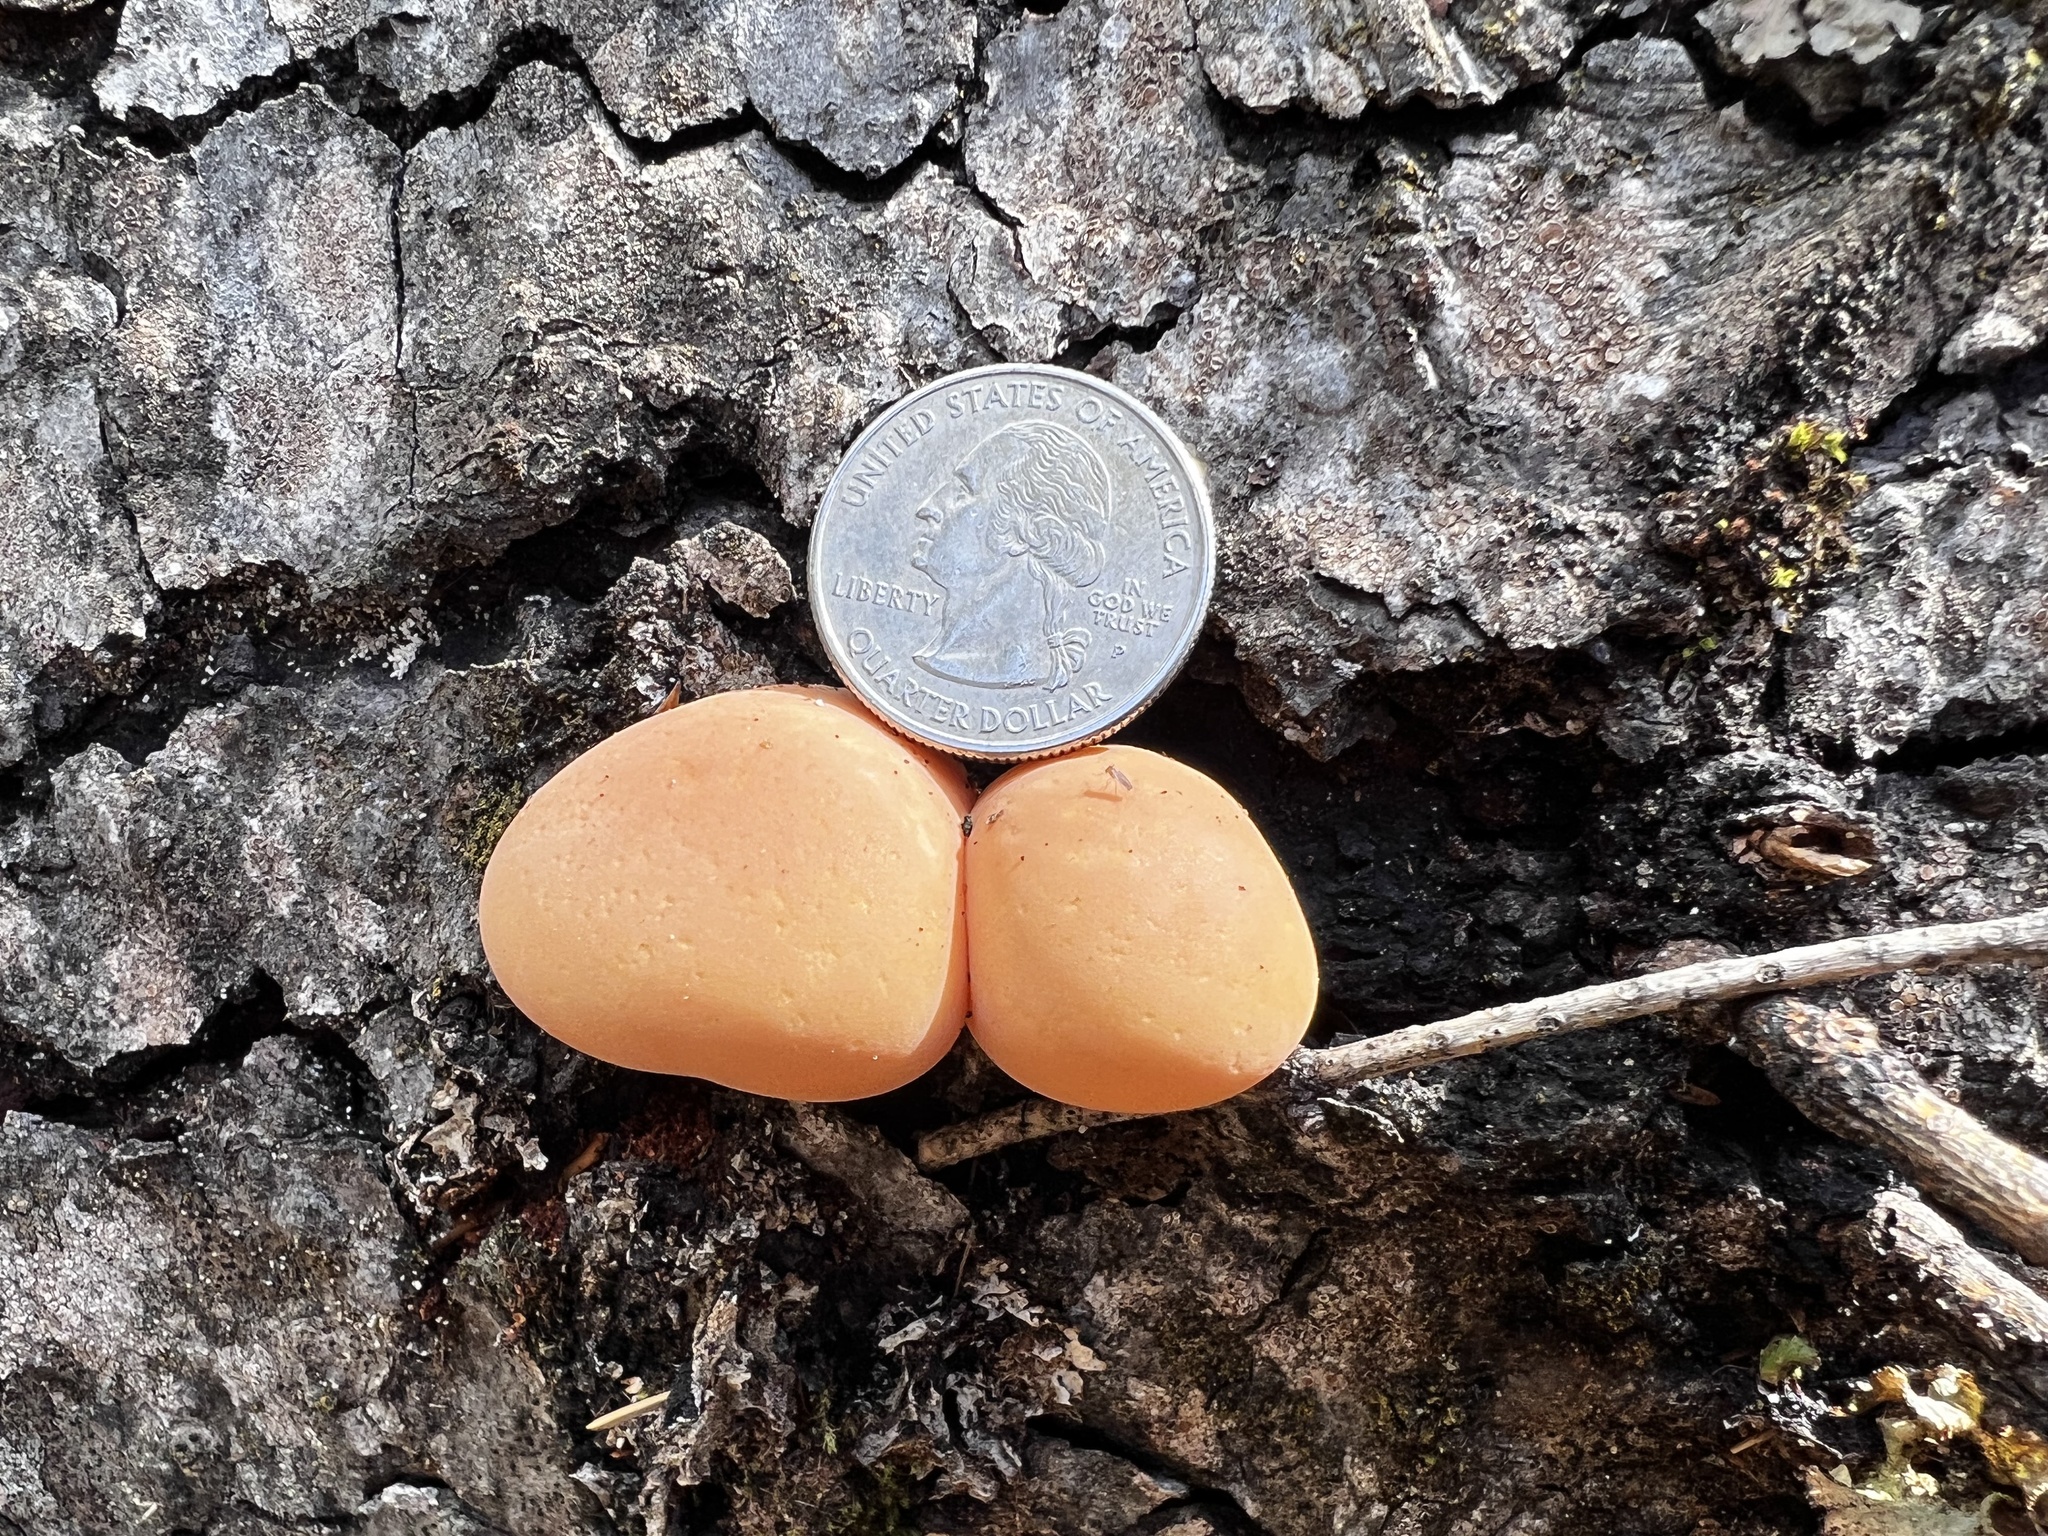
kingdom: Fungi
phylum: Basidiomycota
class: Agaricomycetes
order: Polyporales
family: Polyporaceae
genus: Cryptoporus
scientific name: Cryptoporus volvatus
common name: Veiled polypore
